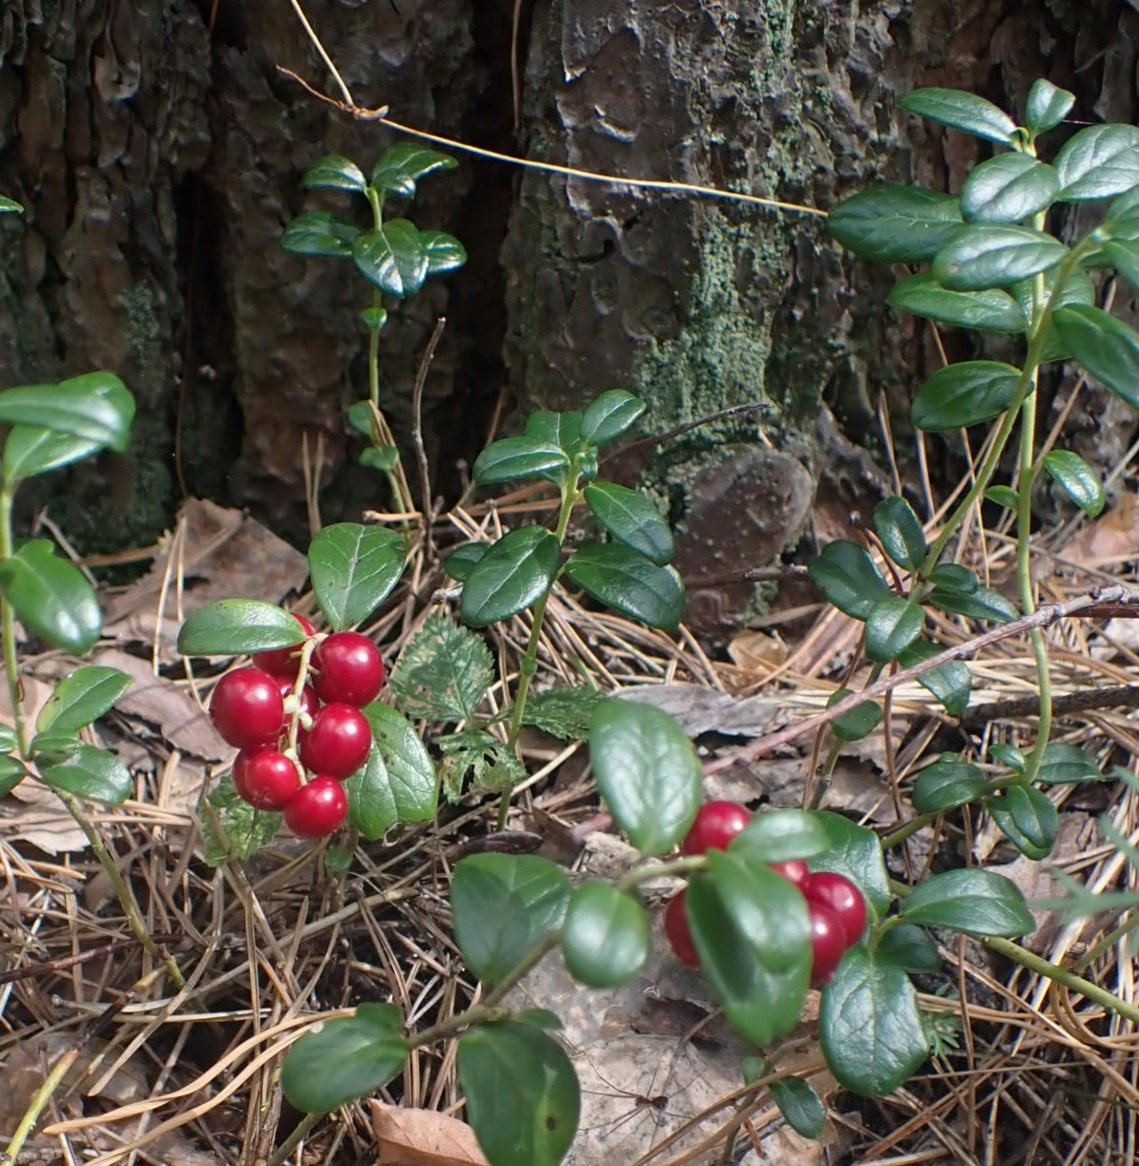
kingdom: Plantae
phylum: Tracheophyta
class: Magnoliopsida
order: Ericales
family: Ericaceae
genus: Vaccinium
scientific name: Vaccinium vitis-idaea
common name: Cowberry
